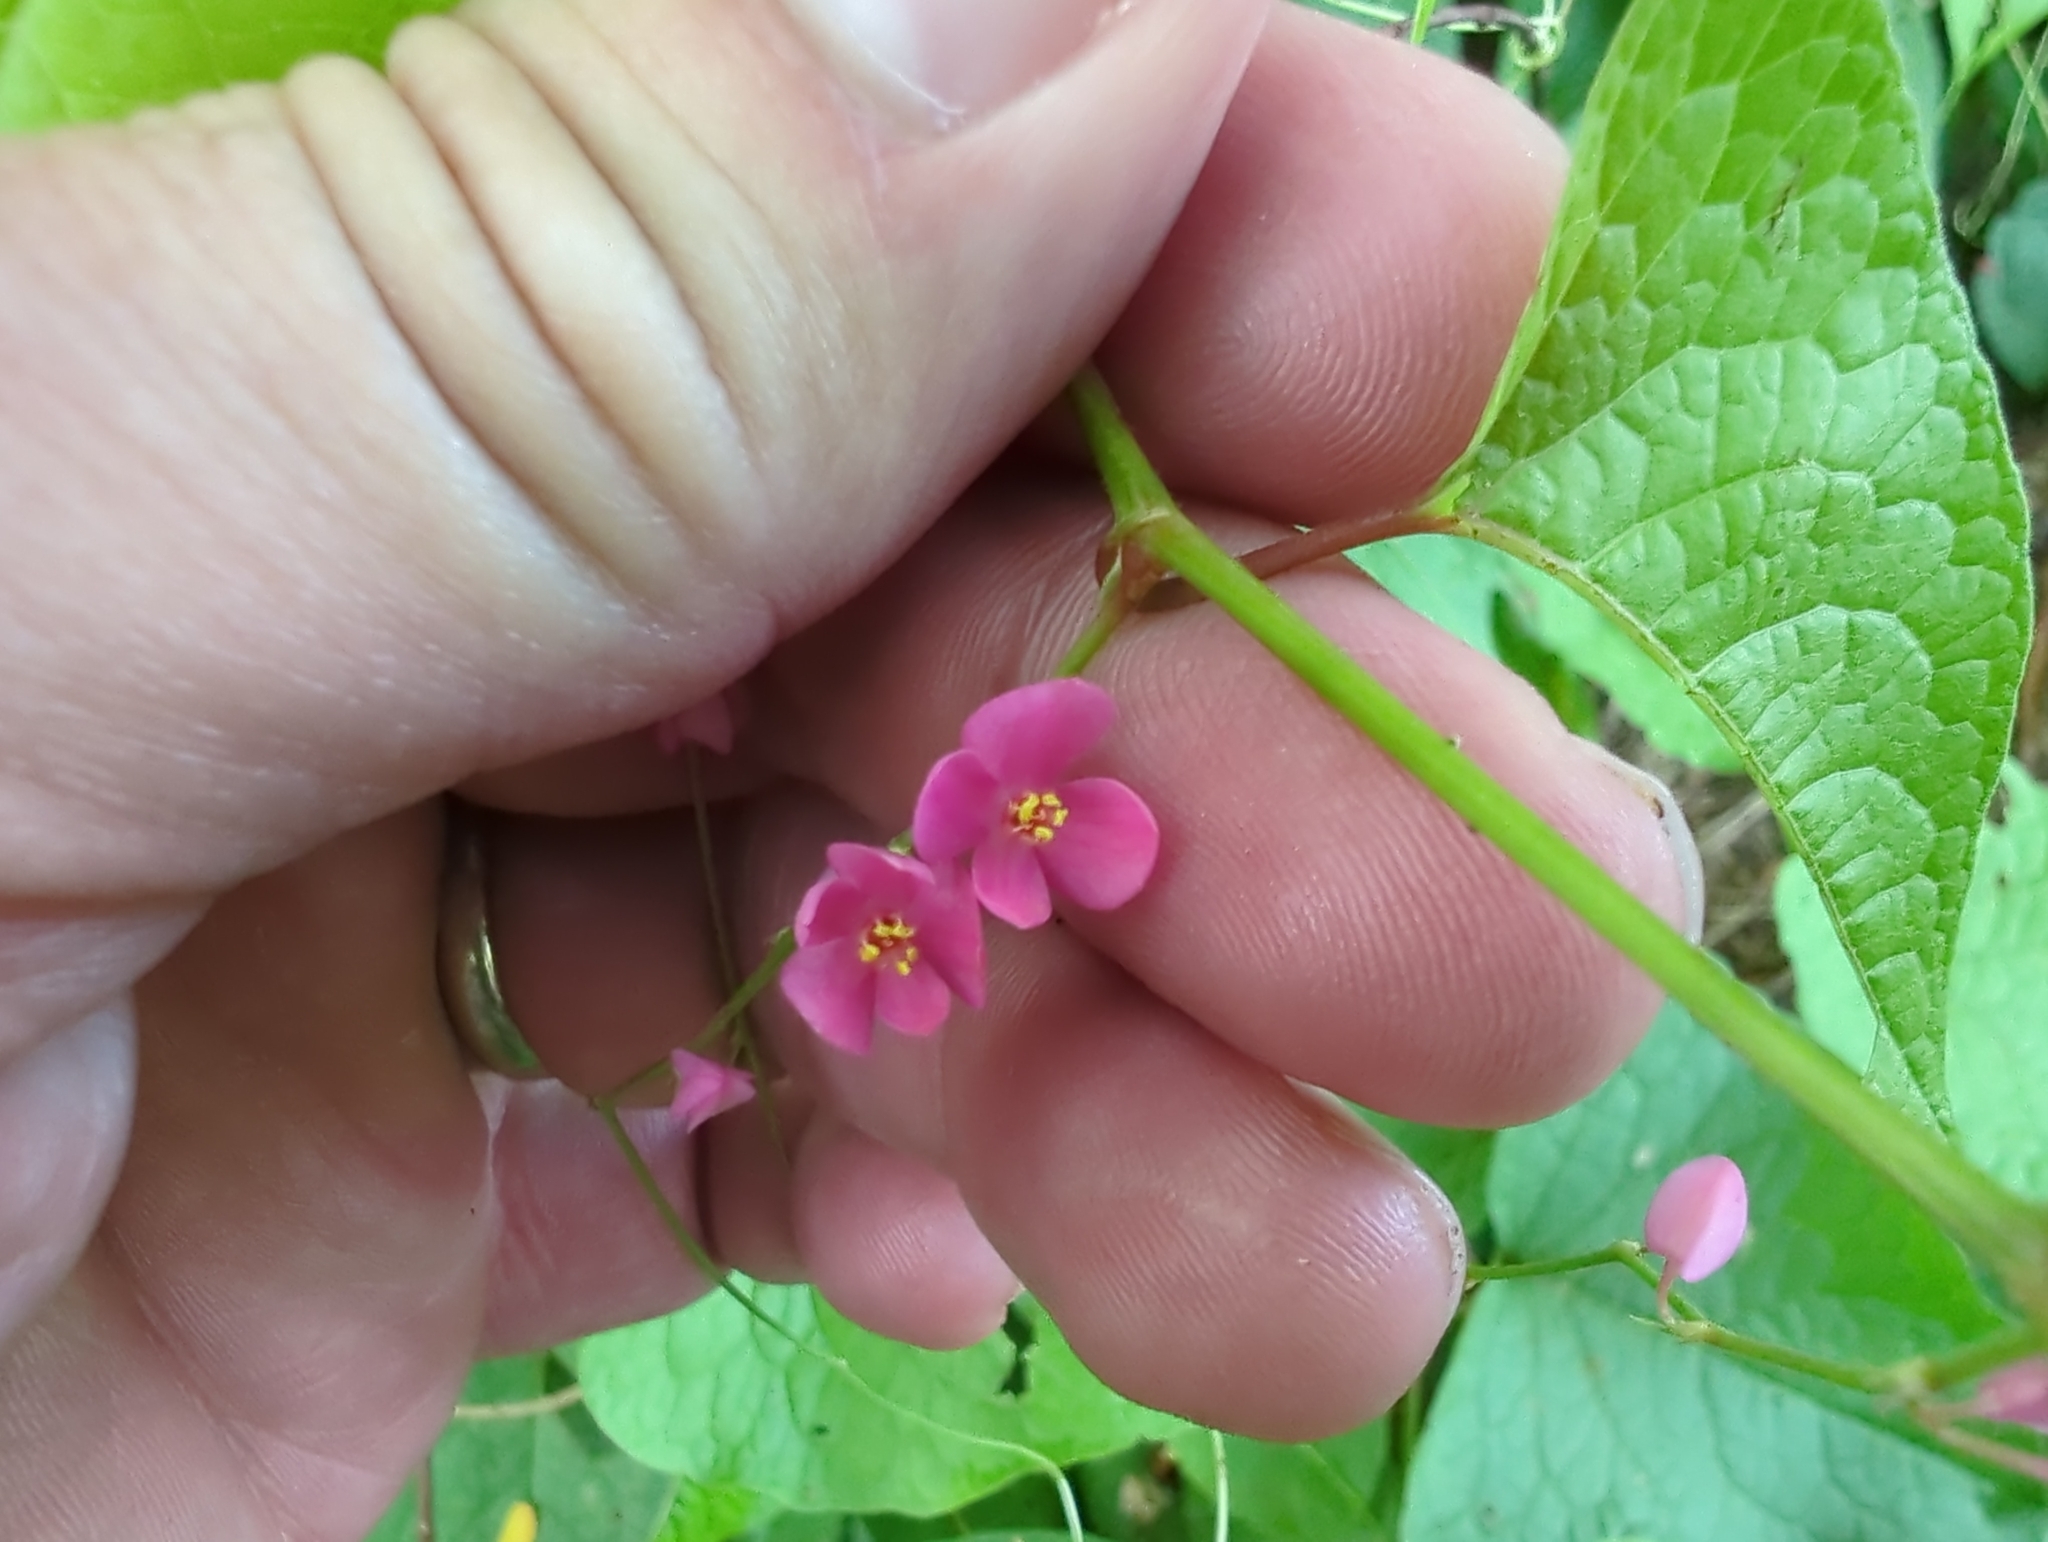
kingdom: Plantae
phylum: Tracheophyta
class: Magnoliopsida
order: Caryophyllales
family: Polygonaceae
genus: Antigonon
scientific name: Antigonon leptopus
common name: Coral vine
